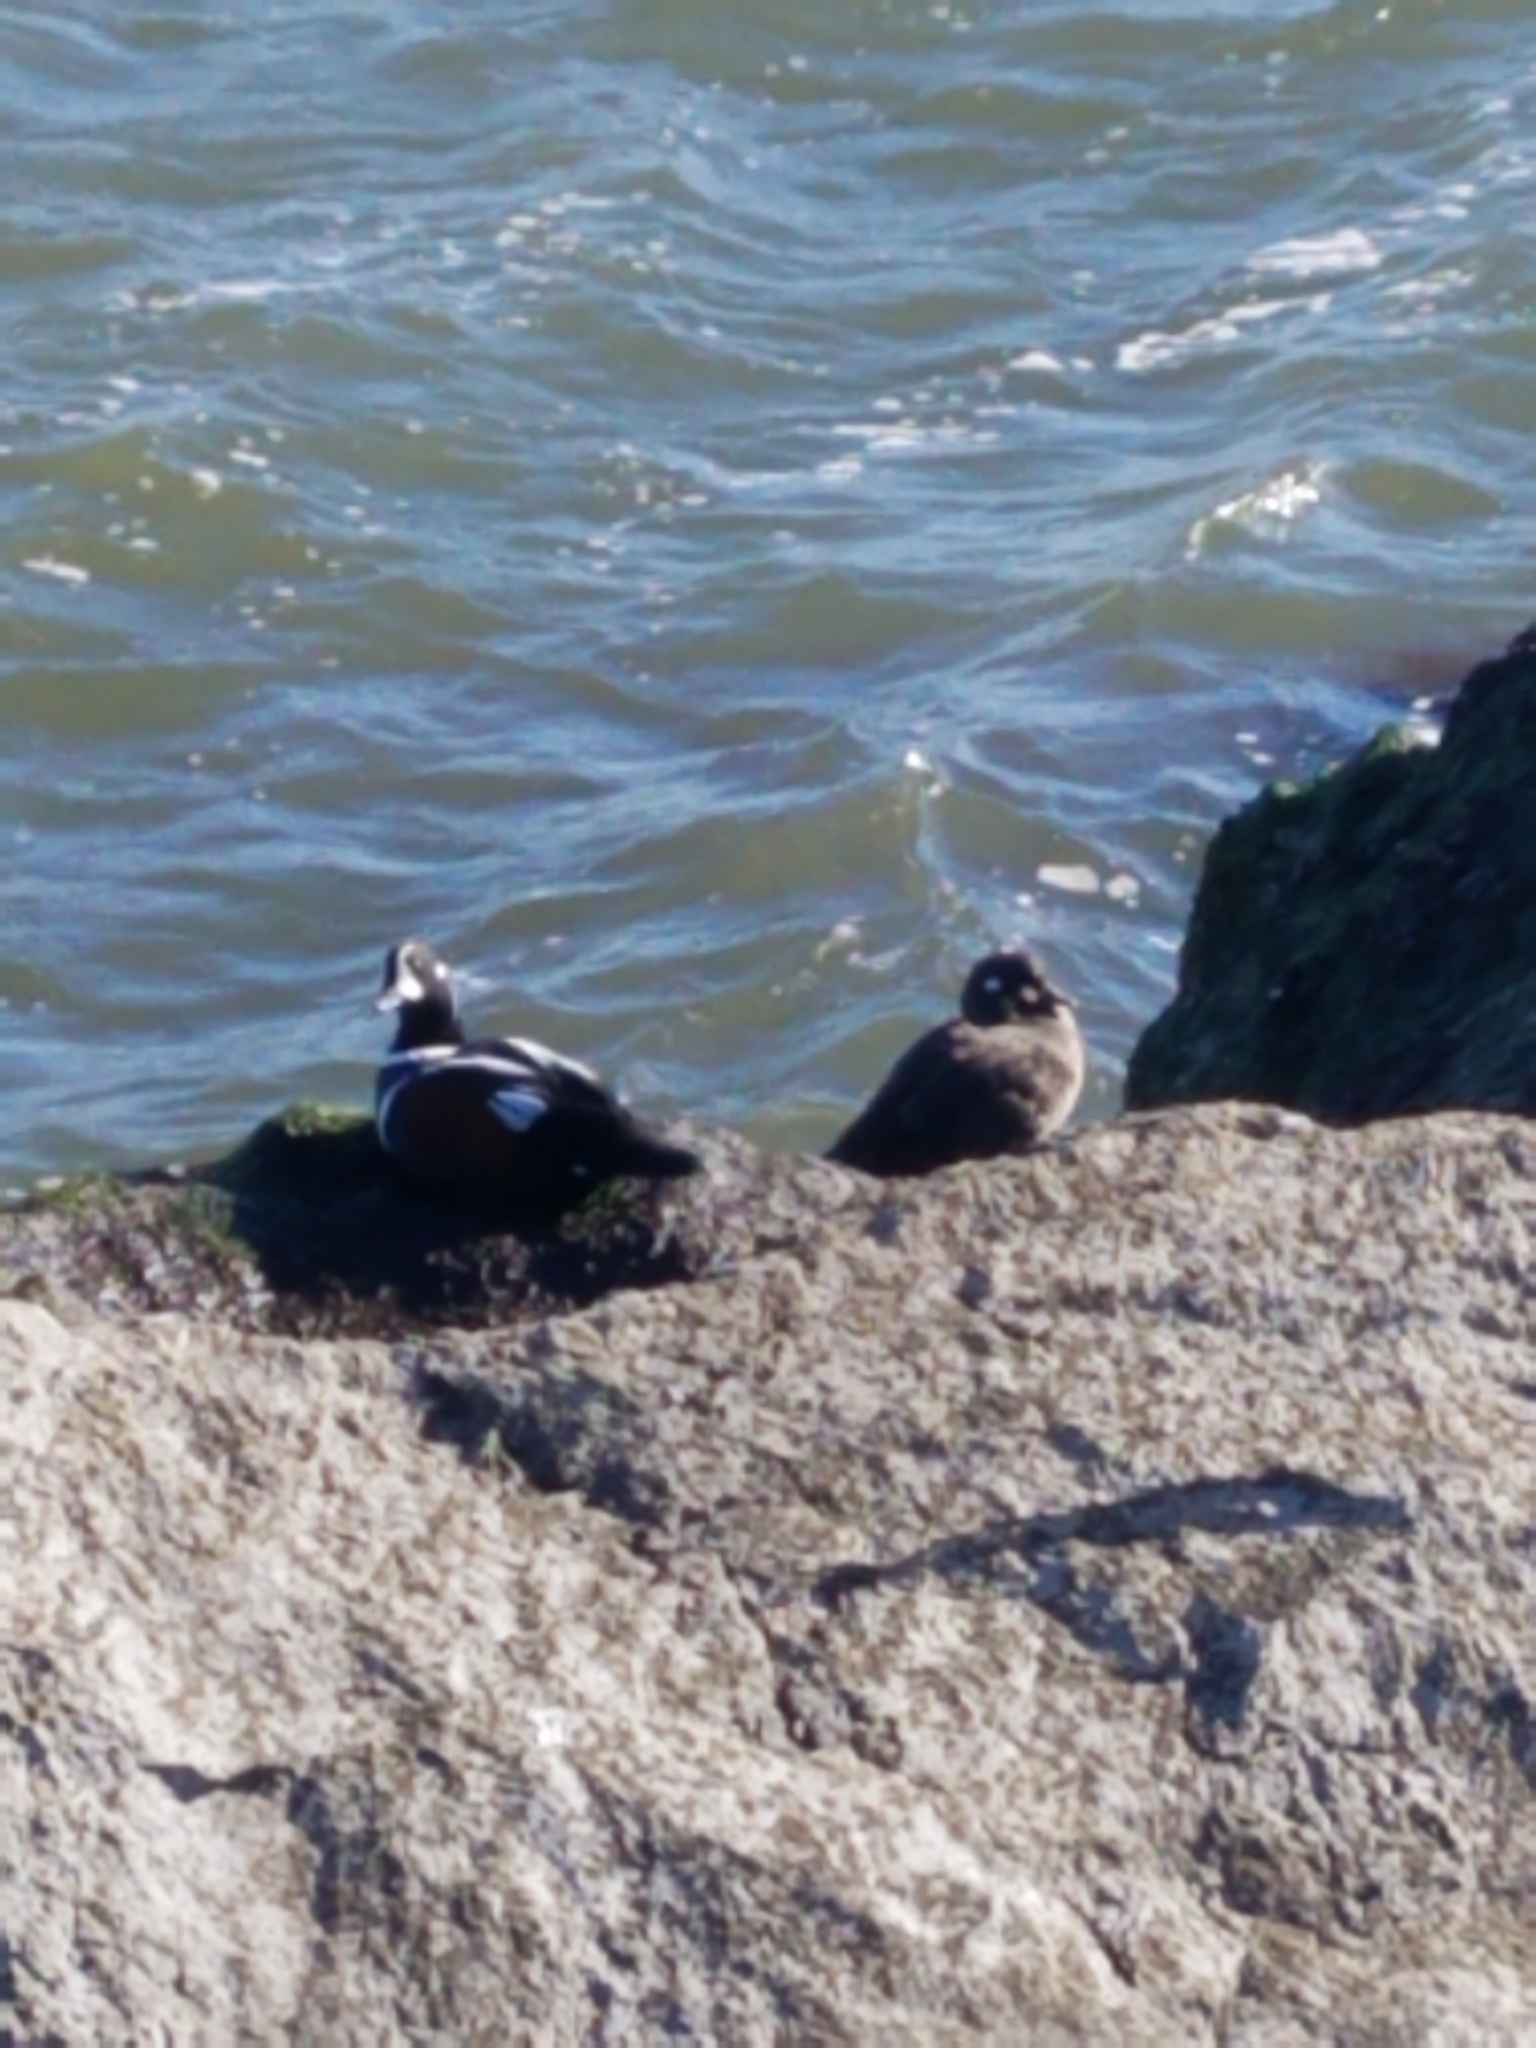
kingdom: Animalia
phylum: Chordata
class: Aves
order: Anseriformes
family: Anatidae
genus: Histrionicus
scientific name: Histrionicus histrionicus
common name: Harlequin duck
